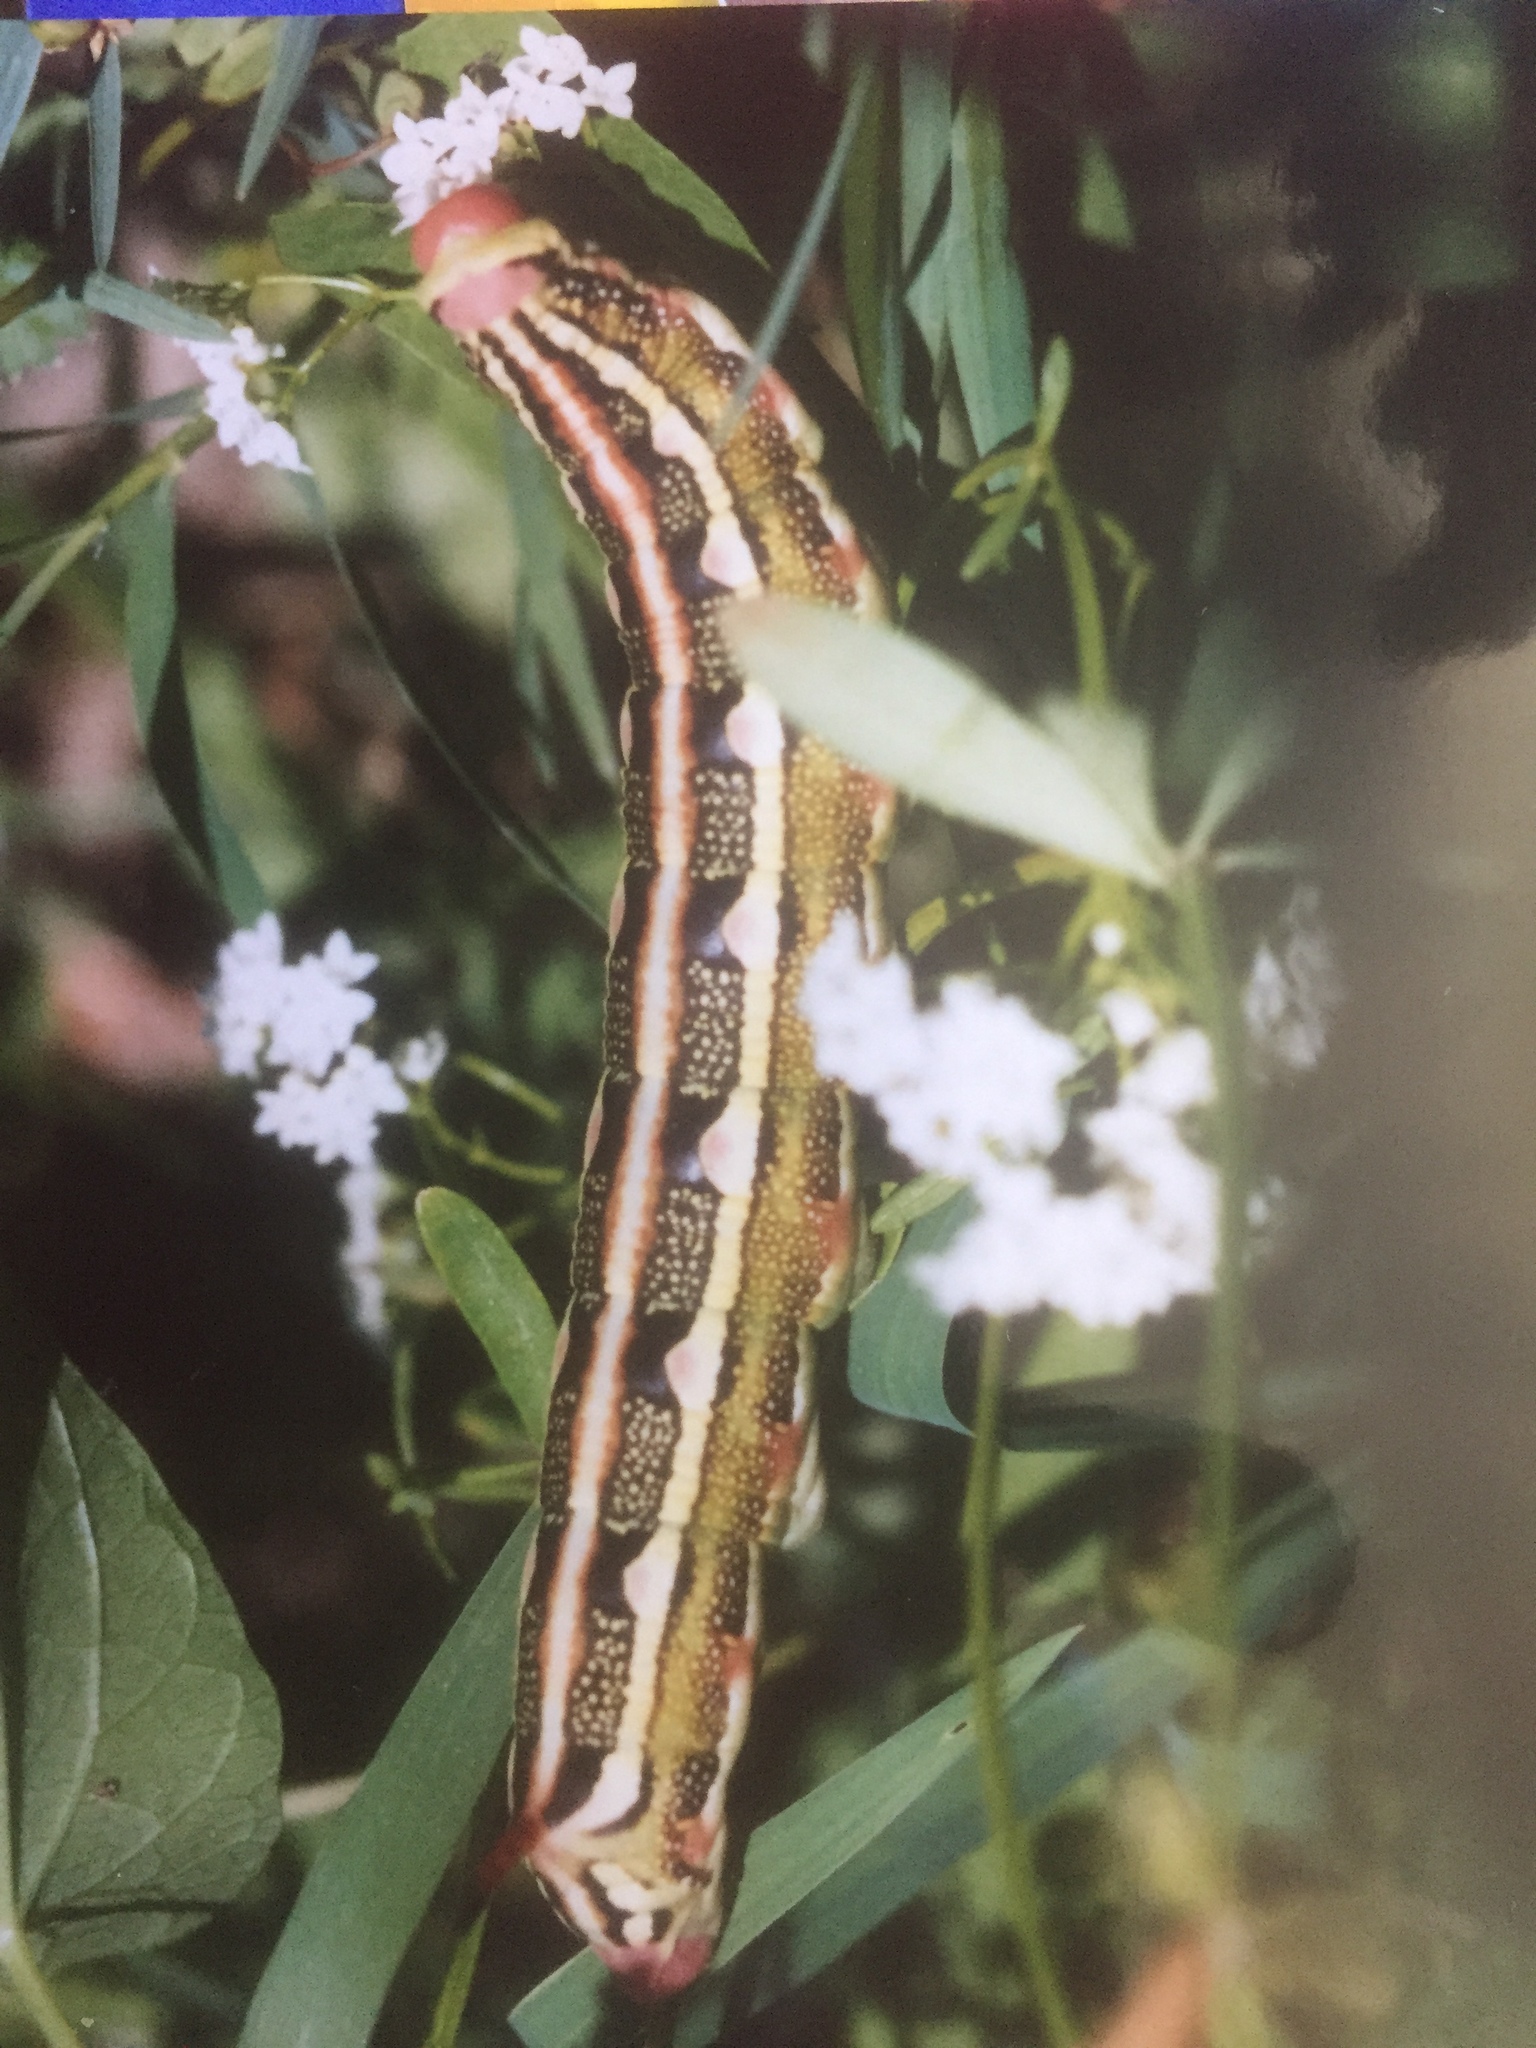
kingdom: Animalia
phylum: Arthropoda
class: Insecta
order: Lepidoptera
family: Sphingidae
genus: Hyles
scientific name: Hyles livornica
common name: Striped hawk-moth
